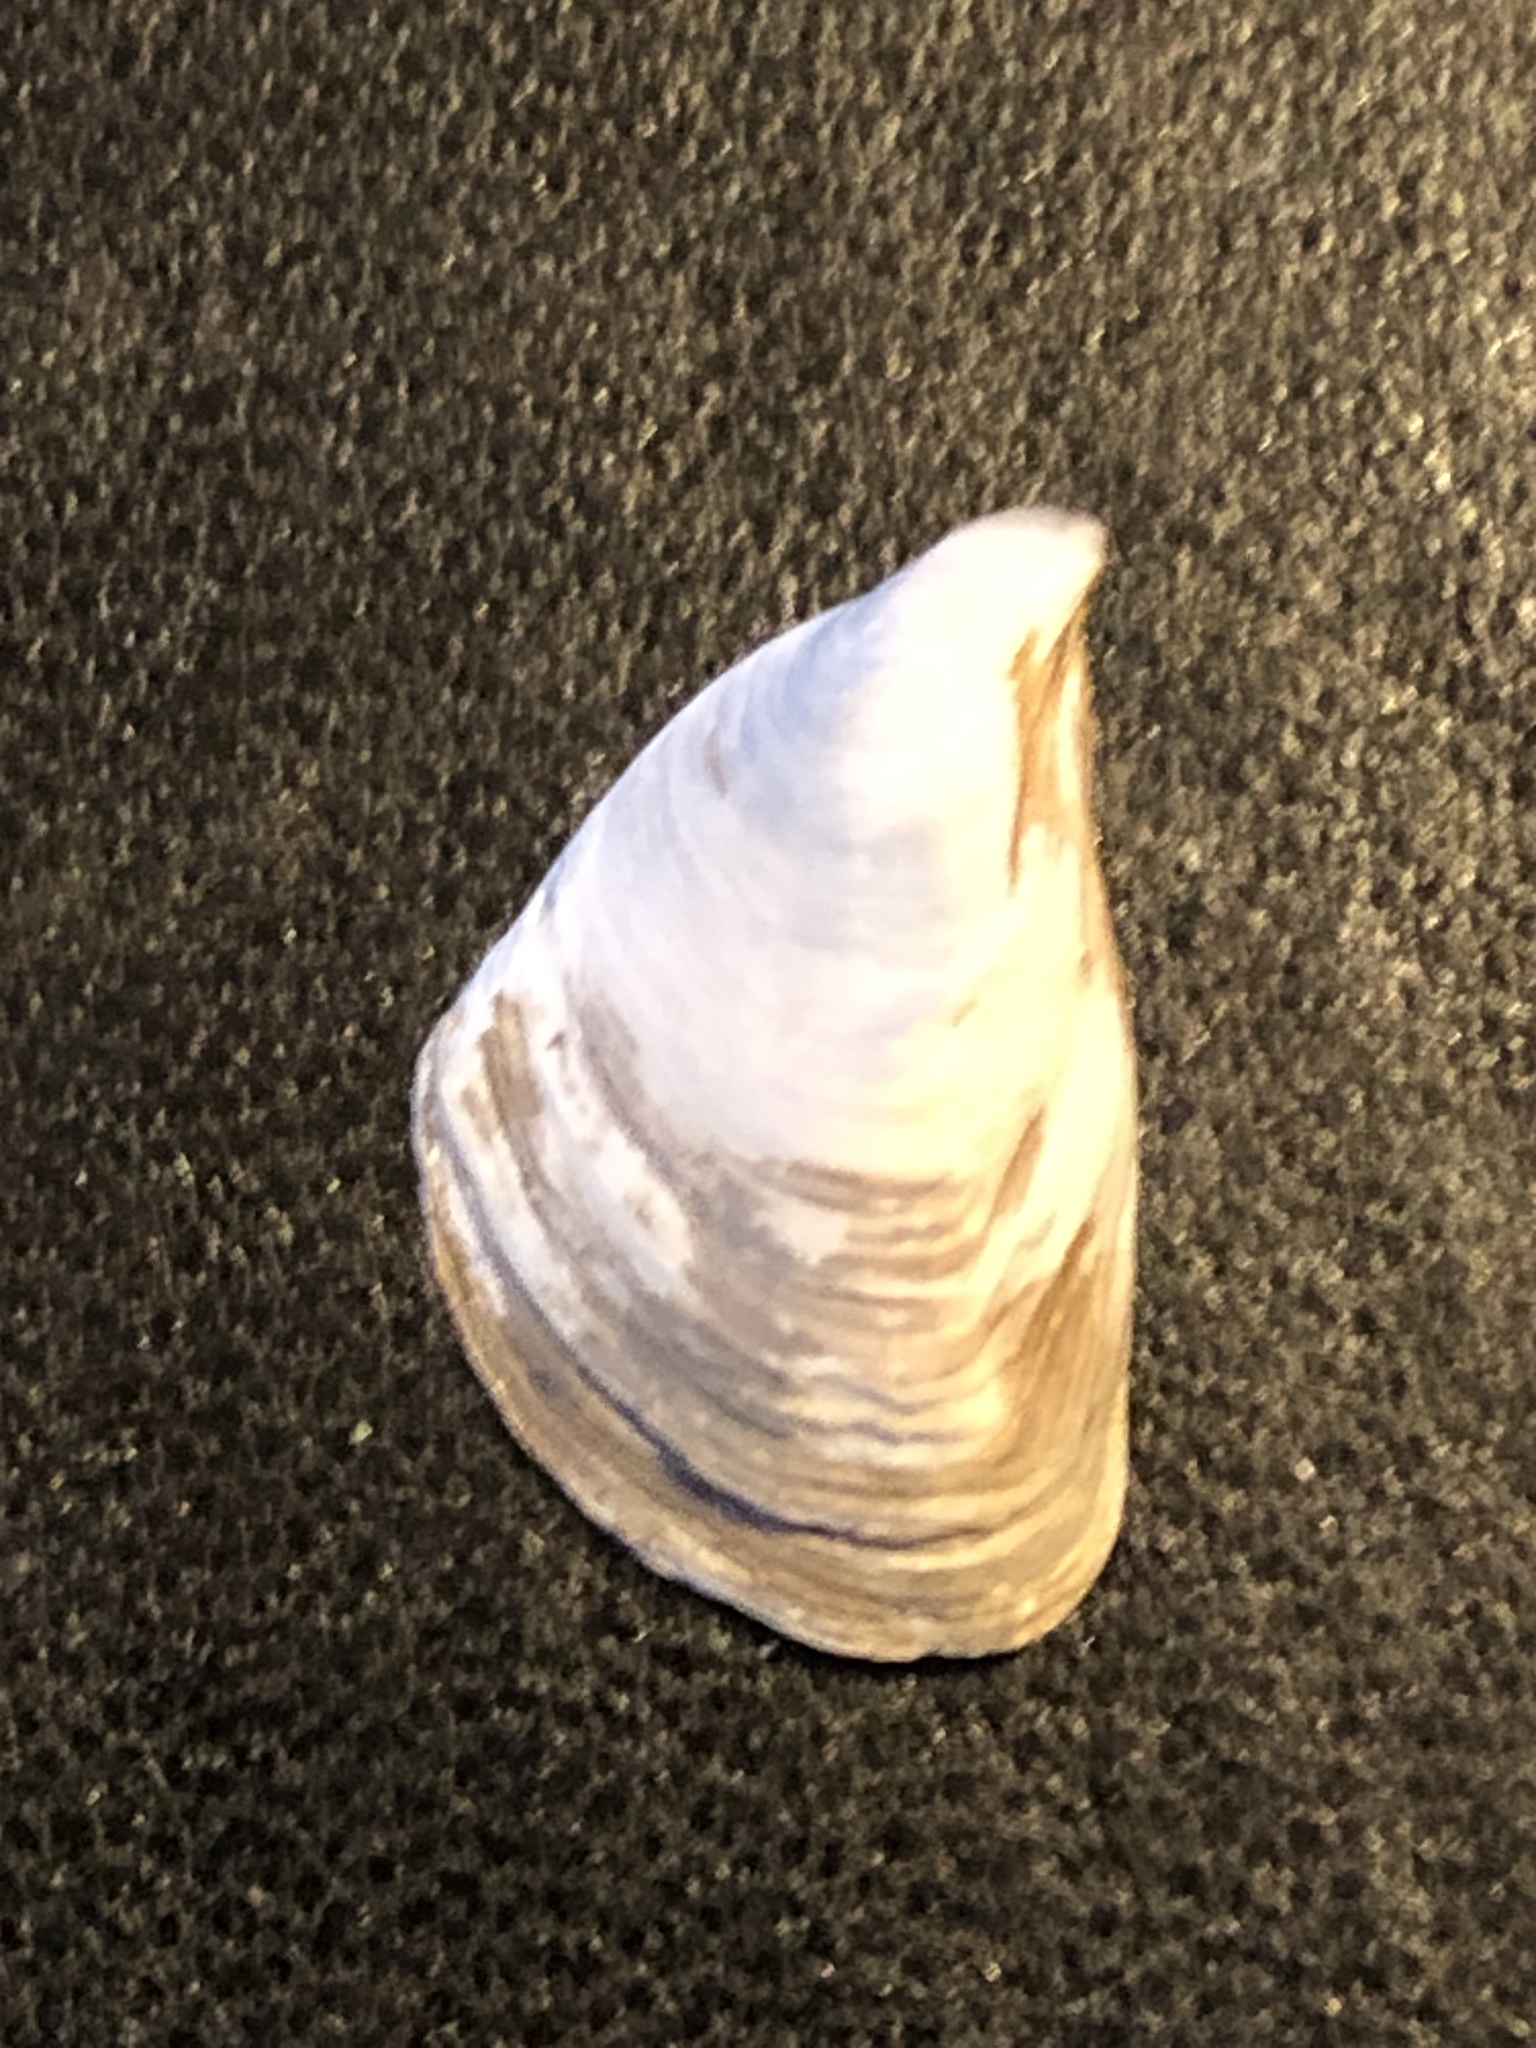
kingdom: Animalia
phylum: Mollusca
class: Bivalvia
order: Myida
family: Dreissenidae
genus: Dreissena
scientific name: Dreissena bugensis
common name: Quagga mussel
